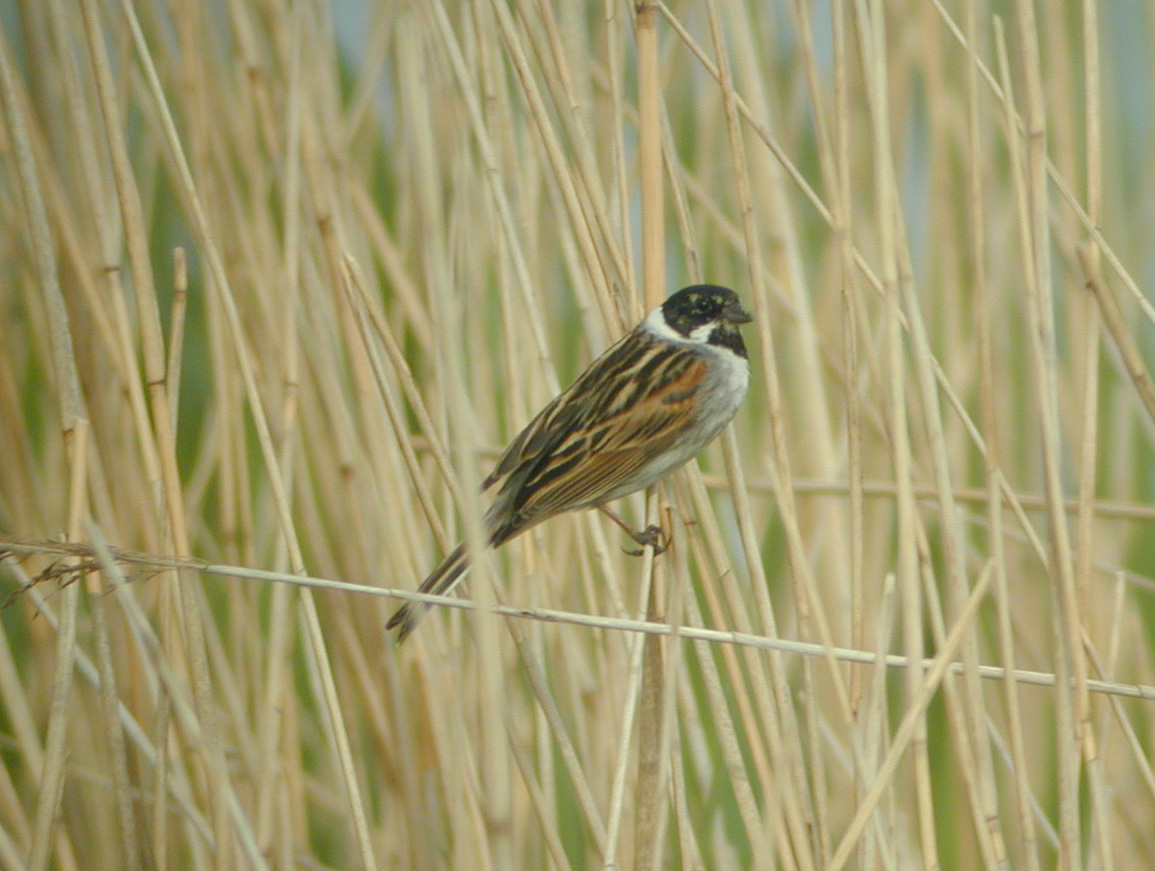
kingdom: Animalia
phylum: Chordata
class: Aves
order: Passeriformes
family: Emberizidae
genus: Emberiza
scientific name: Emberiza schoeniclus
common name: Reed bunting
